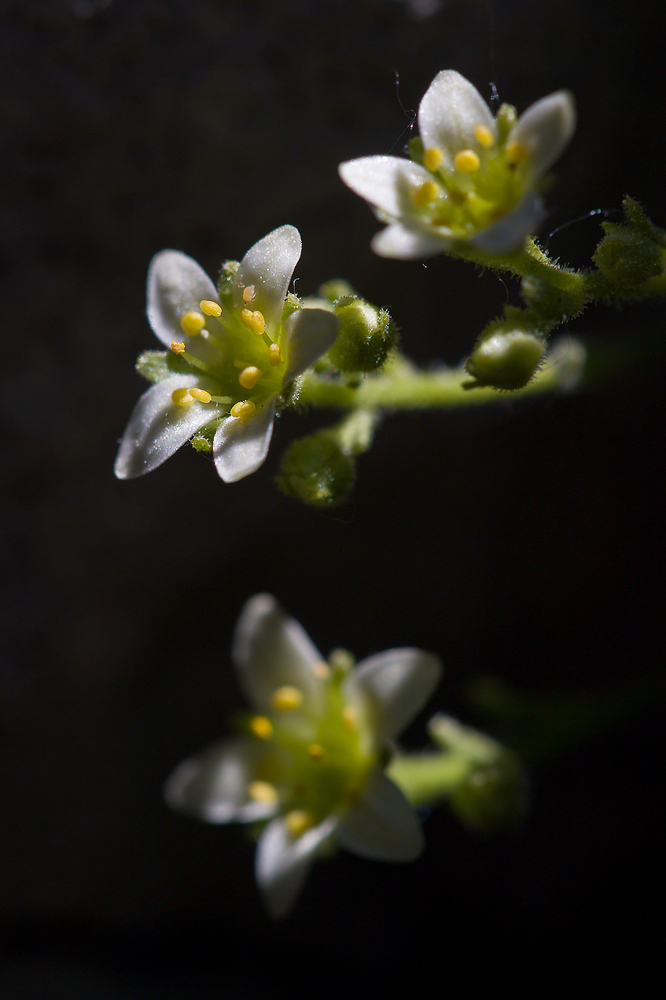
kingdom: Plantae
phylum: Tracheophyta
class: Magnoliopsida
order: Saxifragales
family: Saxifragaceae
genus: Saxifraga
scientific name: Saxifraga exarata
